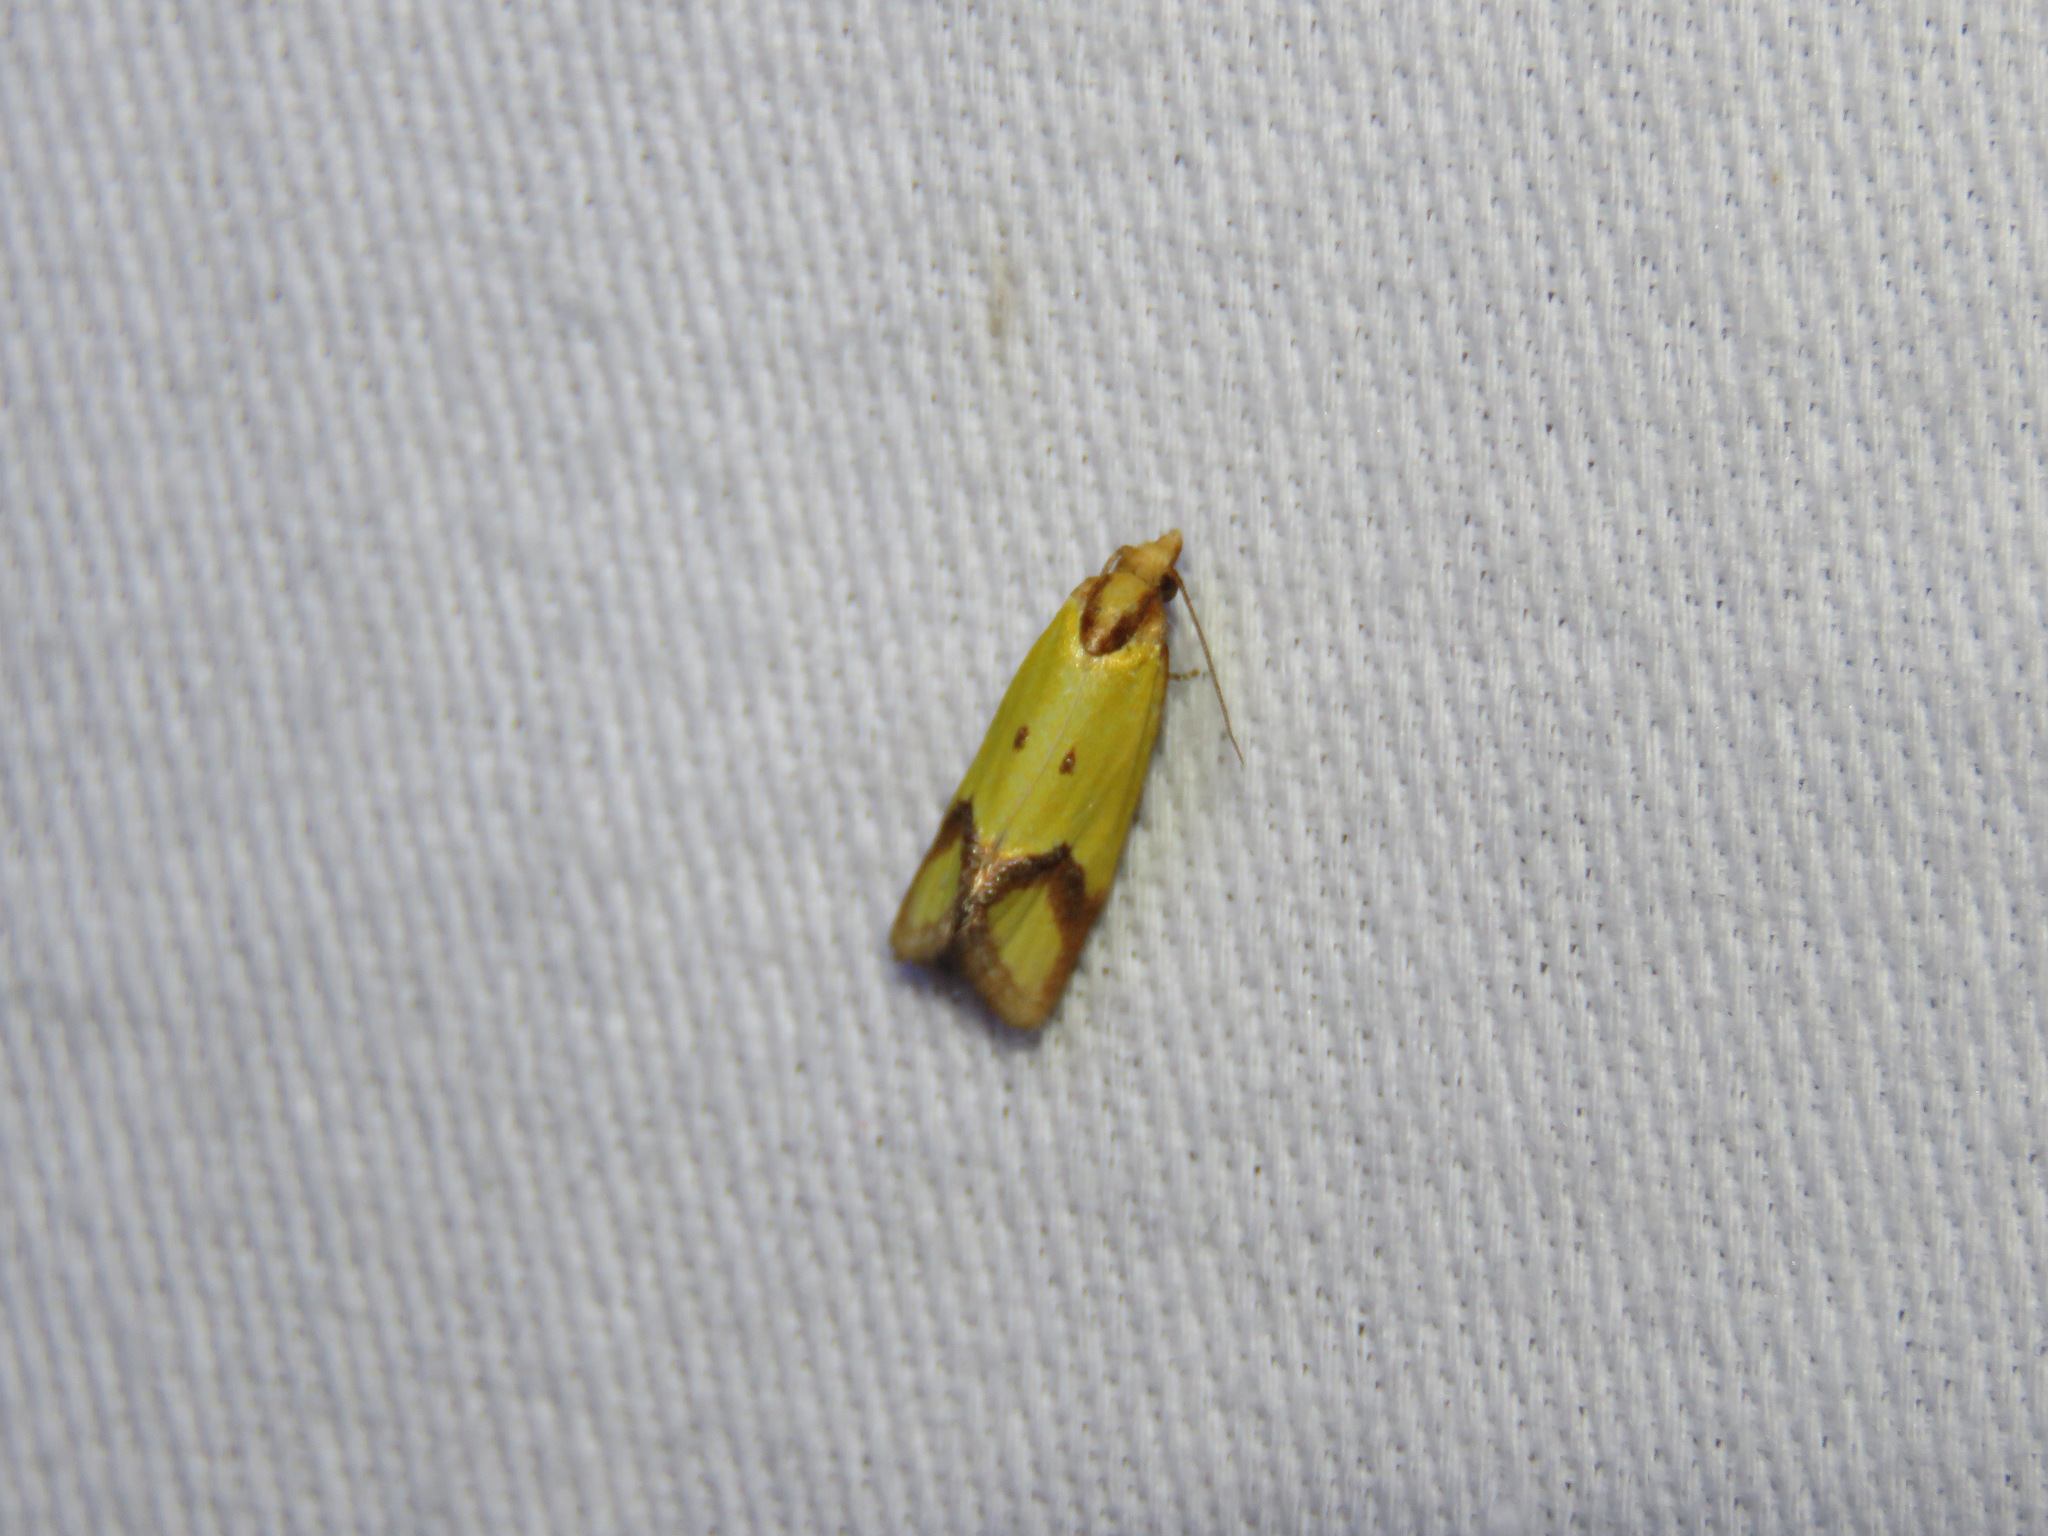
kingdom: Animalia
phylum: Arthropoda
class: Insecta
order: Lepidoptera
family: Tortricidae
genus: Agapeta
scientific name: Agapeta zoegana
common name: Sulfur knapweed root moth
